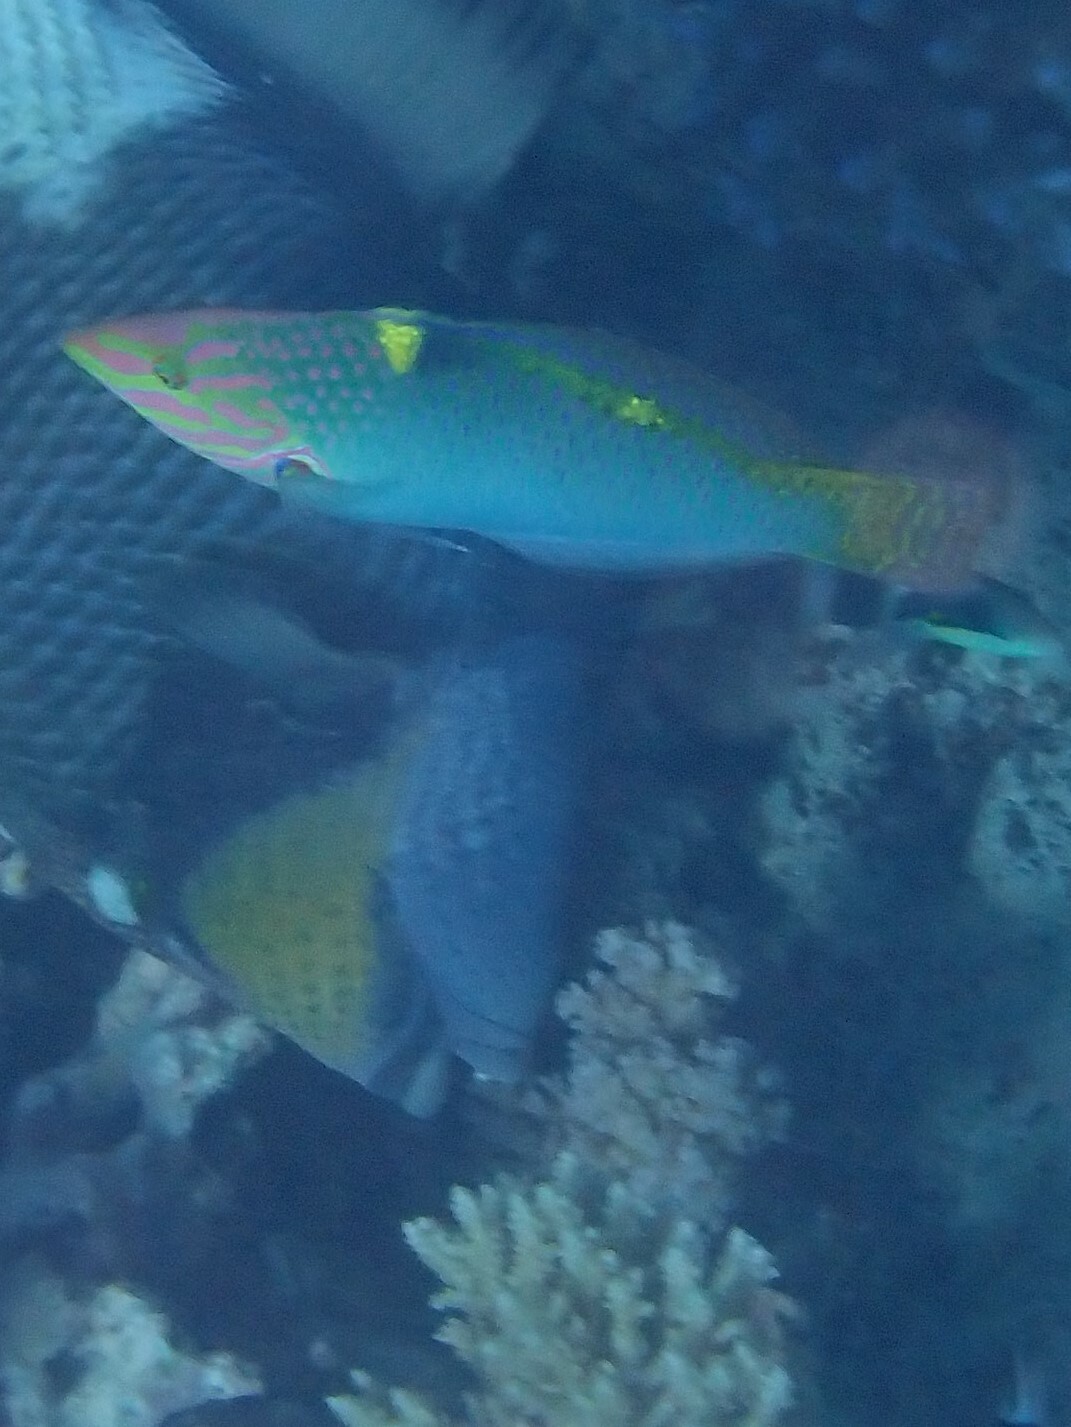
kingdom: Animalia
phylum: Chordata
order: Perciformes
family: Labridae
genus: Halichoeres
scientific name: Halichoeres hortulanus
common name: Checkerboard wrasse
